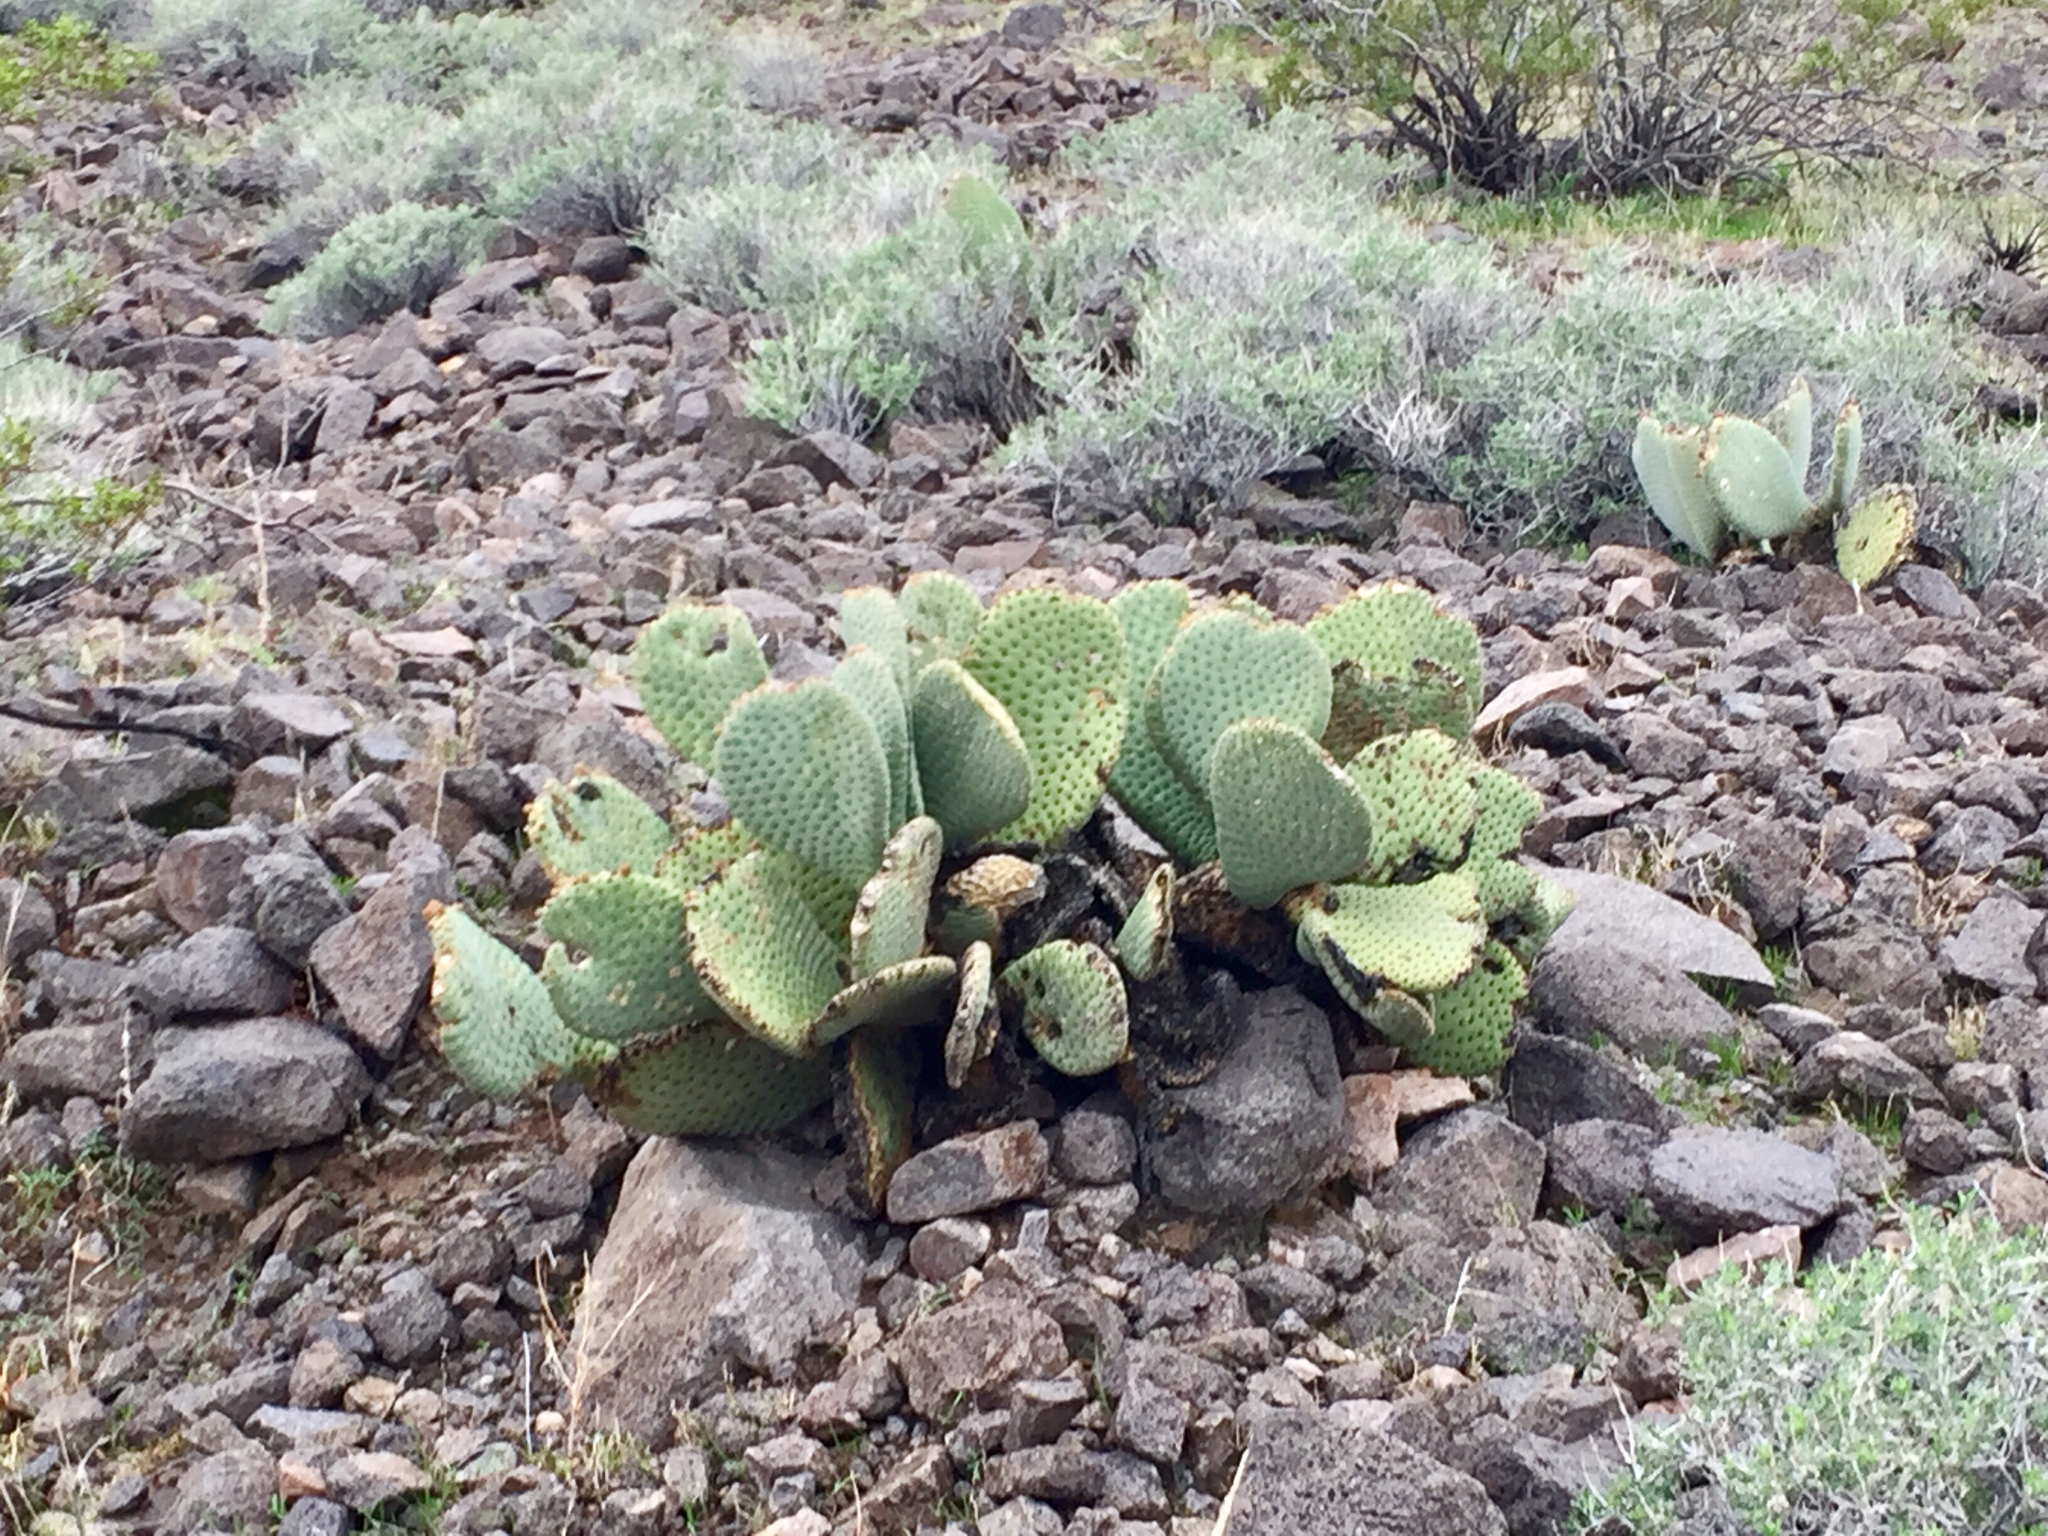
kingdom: Plantae
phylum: Tracheophyta
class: Magnoliopsida
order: Caryophyllales
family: Cactaceae
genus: Opuntia
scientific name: Opuntia basilaris
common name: Beavertail prickly-pear
